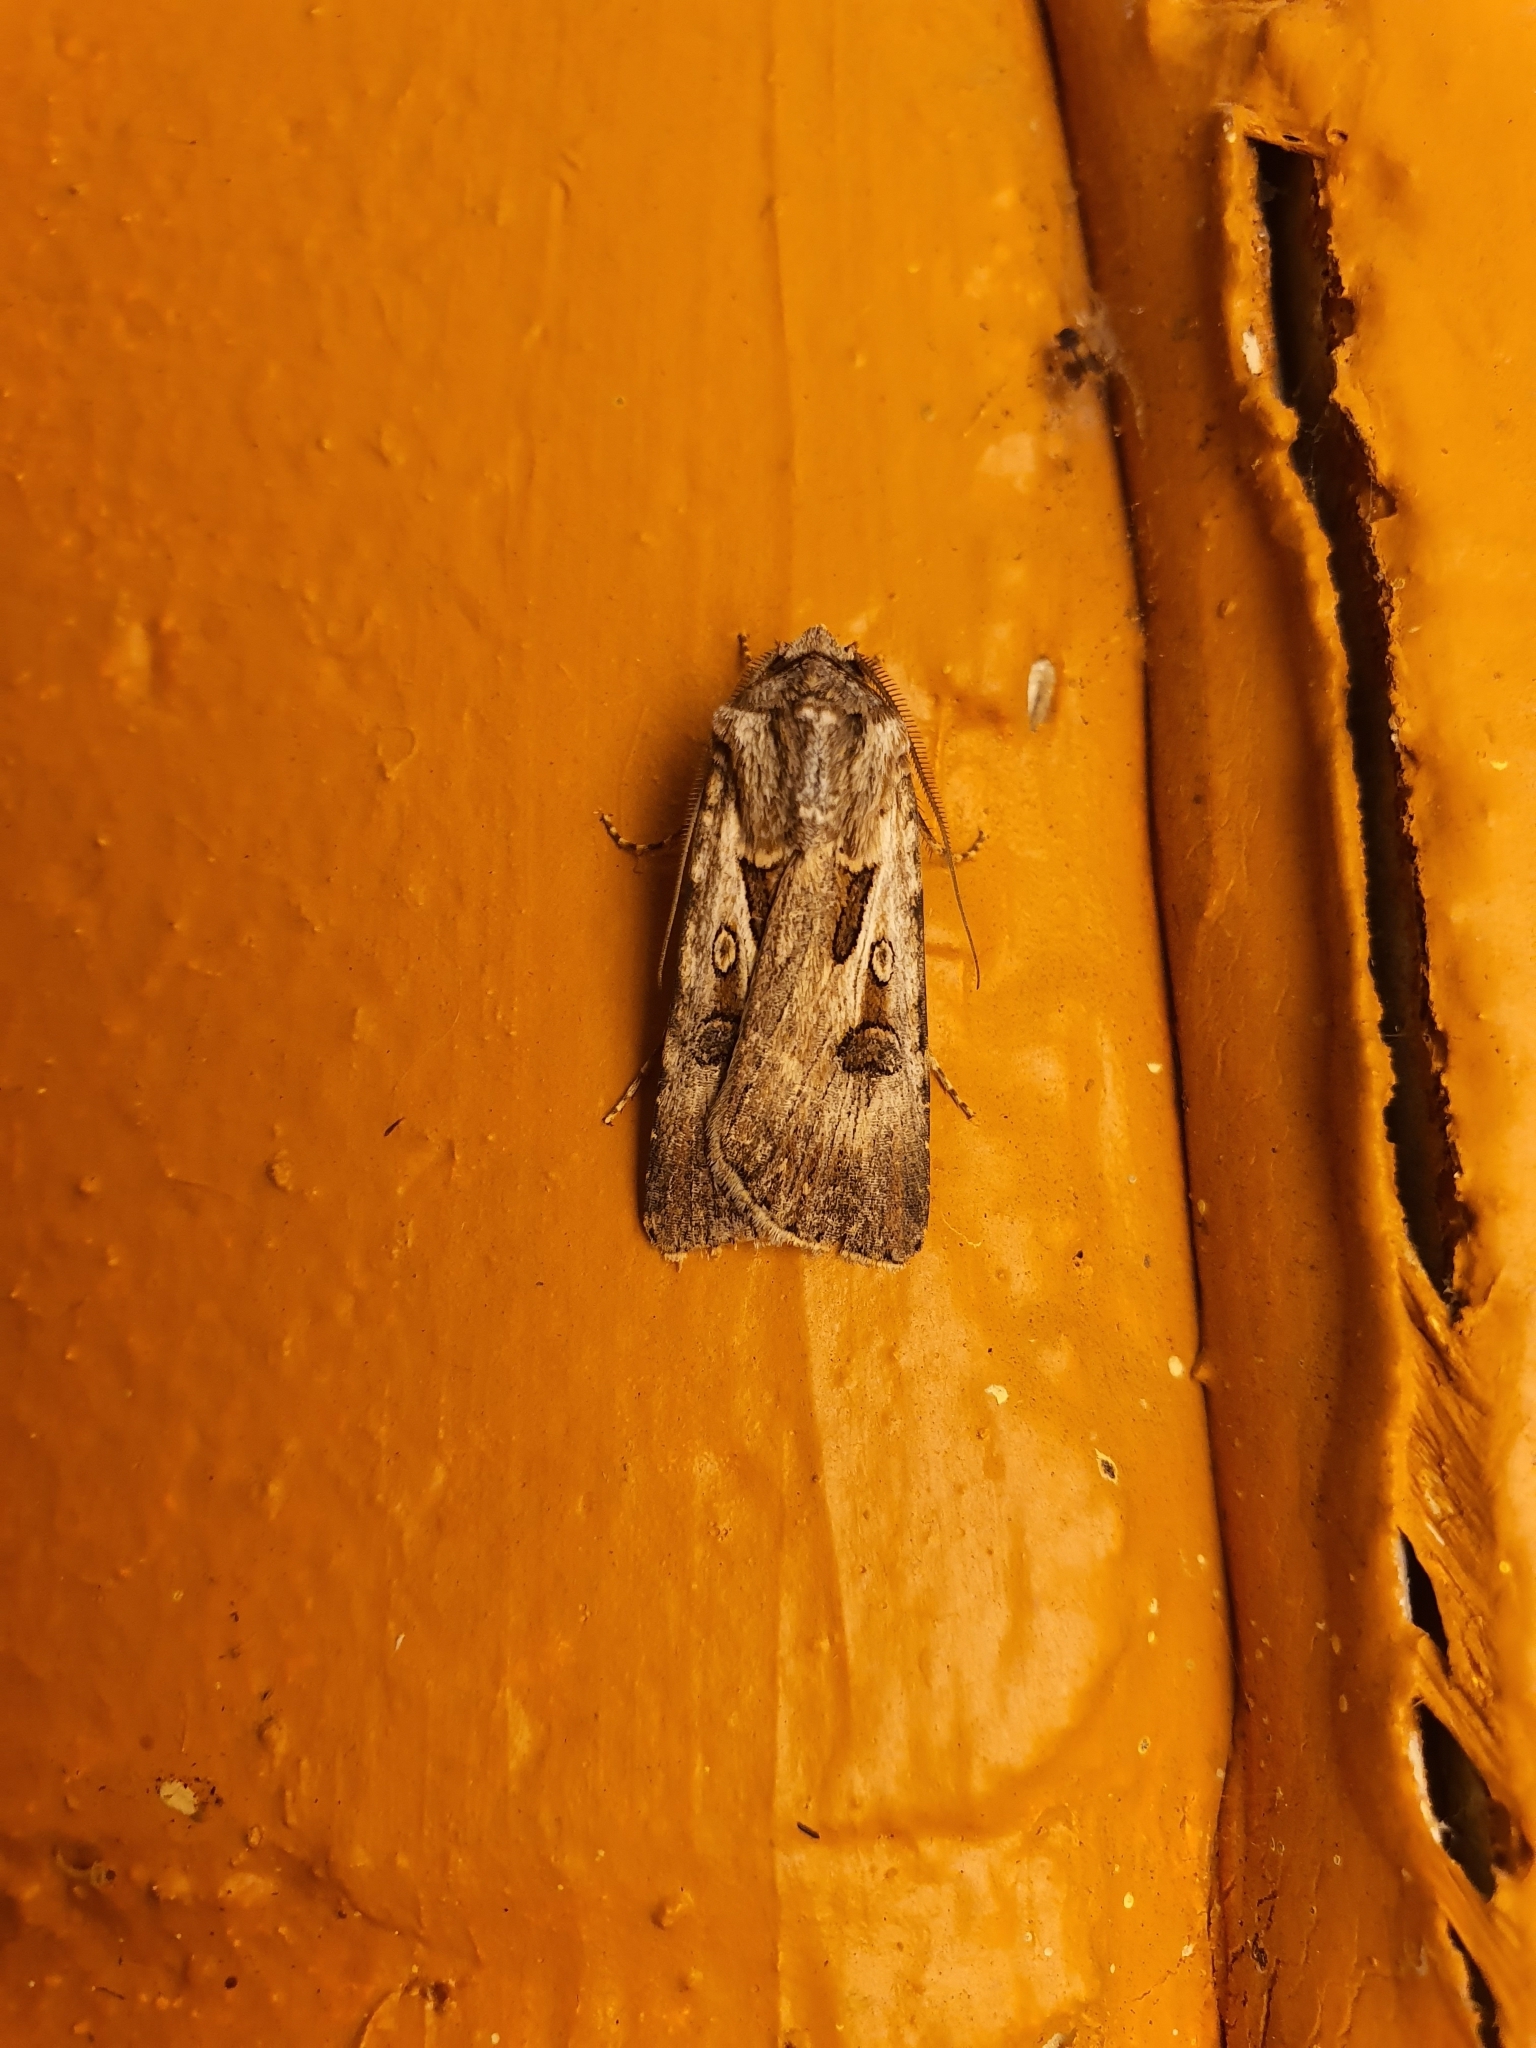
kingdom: Animalia
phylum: Arthropoda
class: Insecta
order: Lepidoptera
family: Noctuidae
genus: Agrotis
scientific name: Agrotis munda
